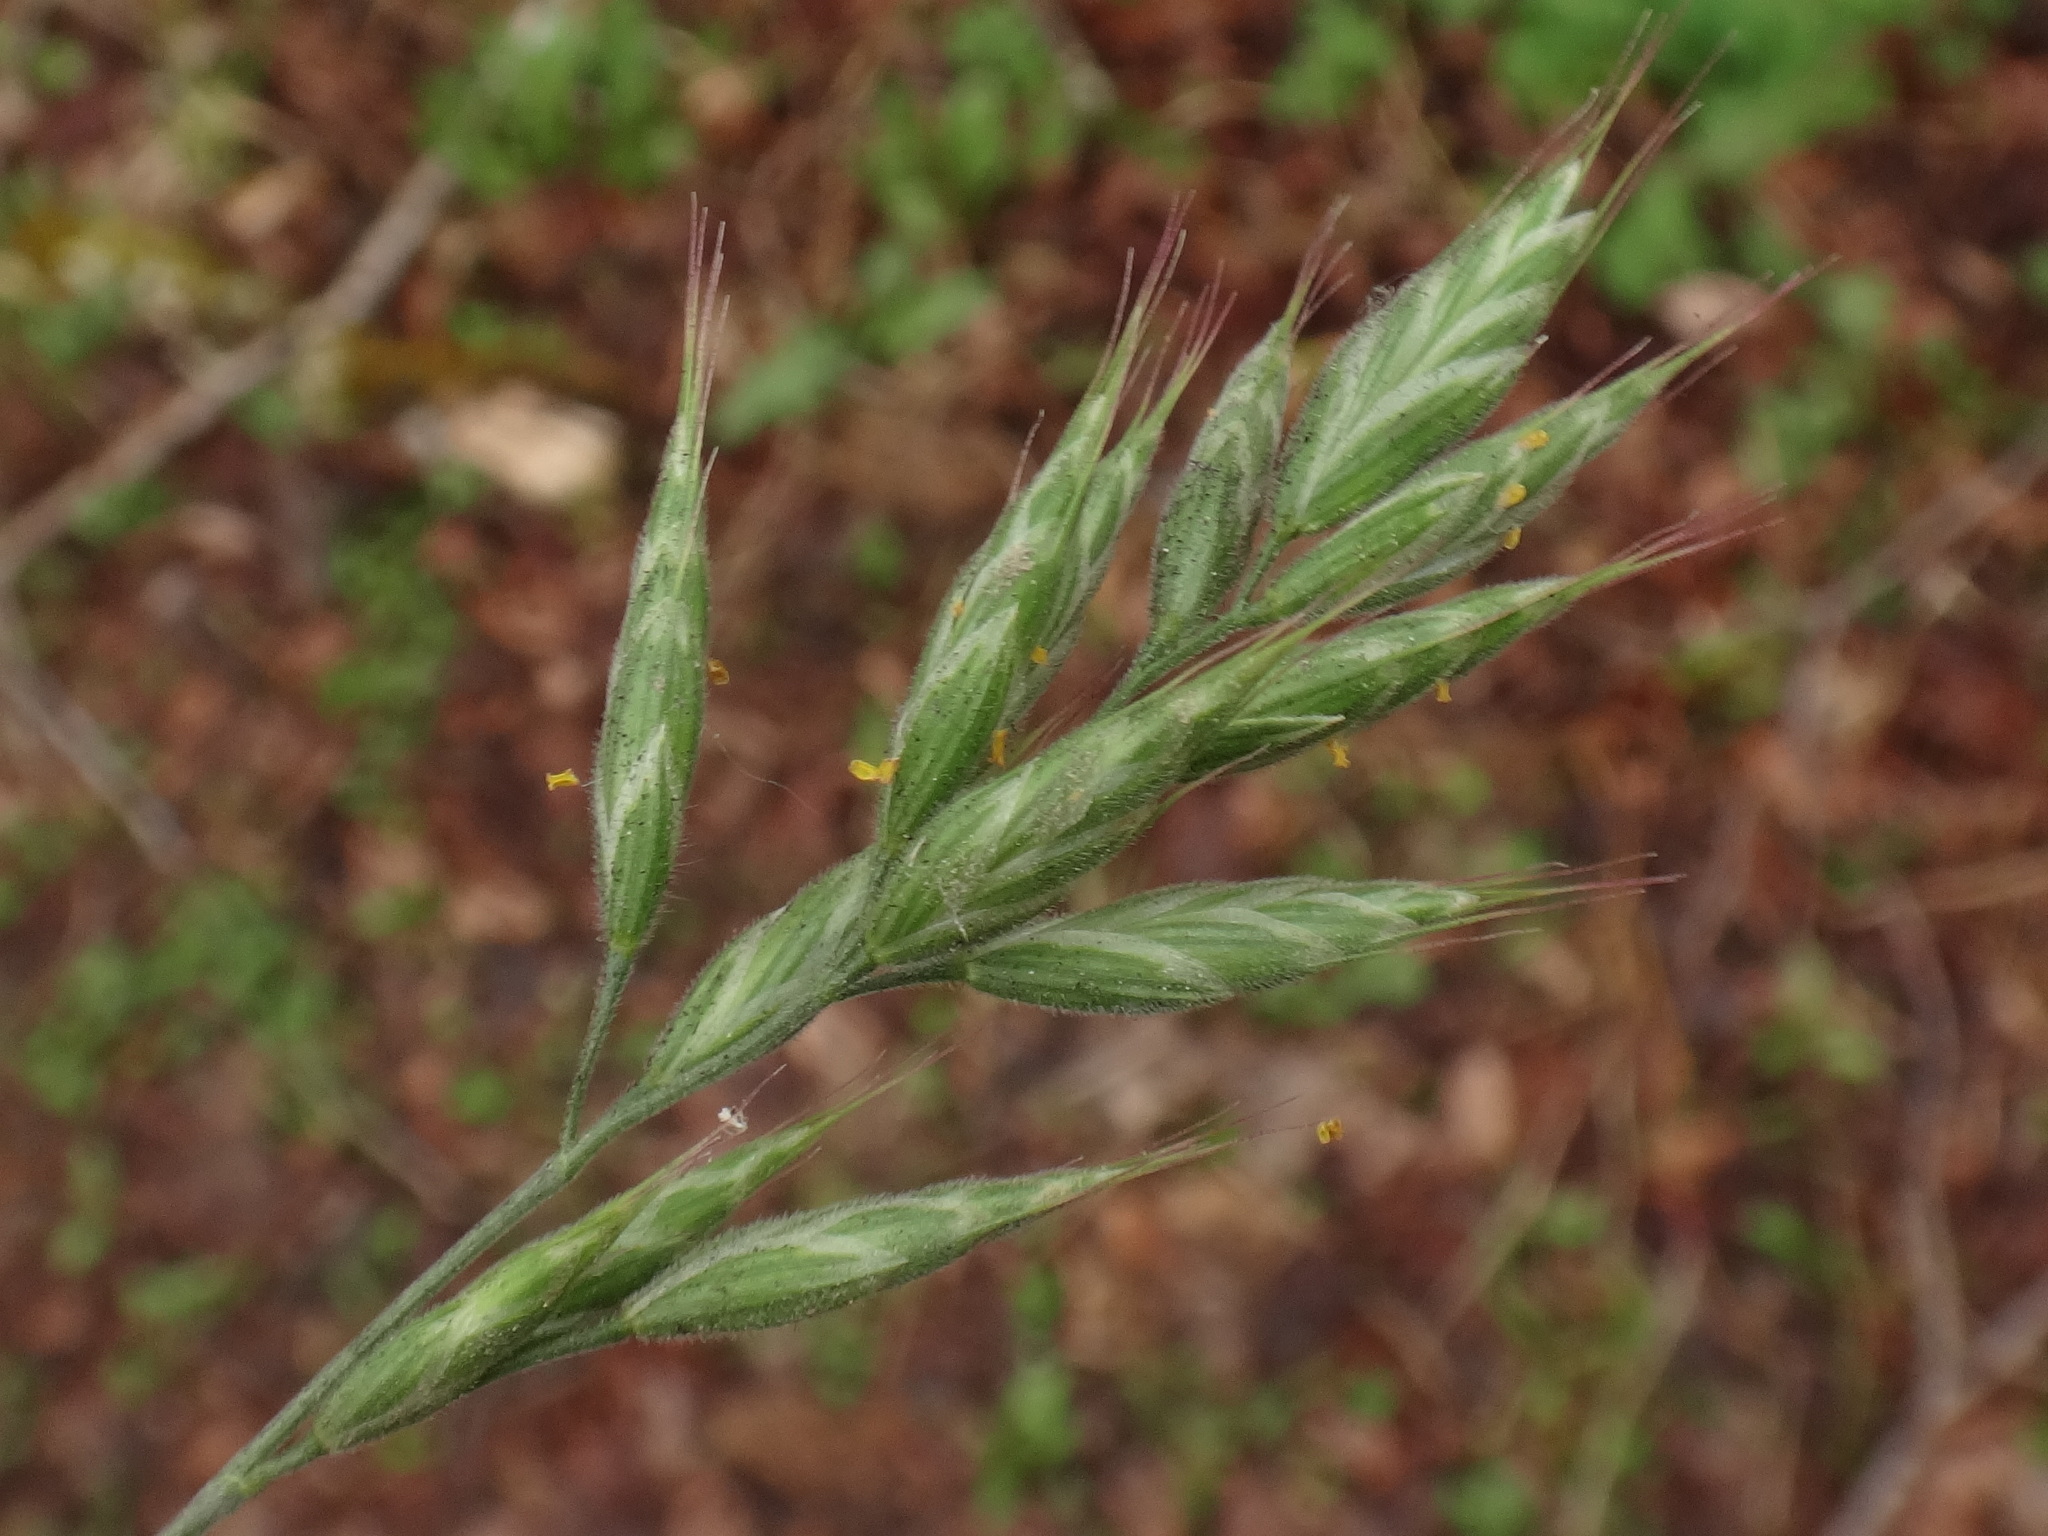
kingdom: Plantae
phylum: Tracheophyta
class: Liliopsida
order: Poales
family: Poaceae
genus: Bromus
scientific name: Bromus hordeaceus
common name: Soft brome
